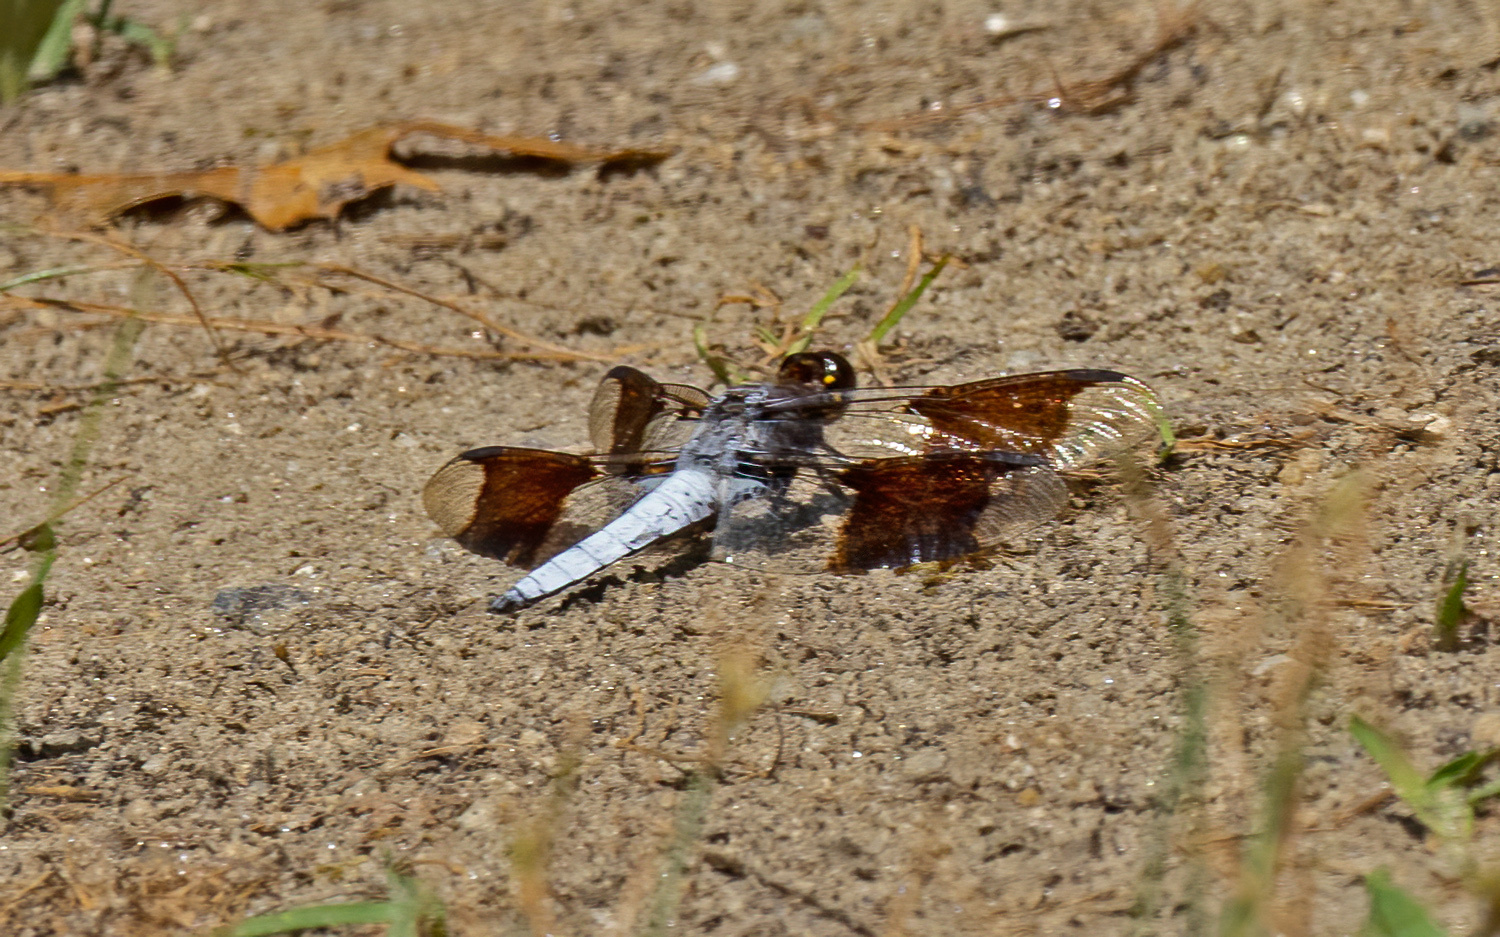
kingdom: Animalia
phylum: Arthropoda
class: Insecta
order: Odonata
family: Libellulidae
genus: Plathemis
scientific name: Plathemis lydia
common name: Common whitetail
